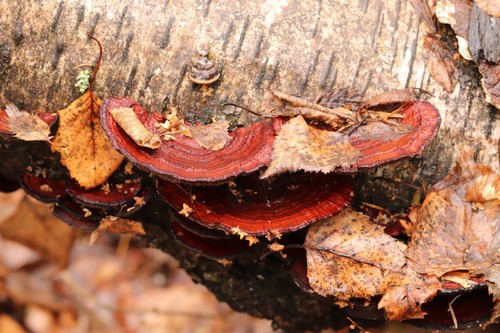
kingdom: Fungi
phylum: Basidiomycota
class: Agaricomycetes
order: Polyporales
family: Polyporaceae
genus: Daedaleopsis
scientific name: Daedaleopsis
